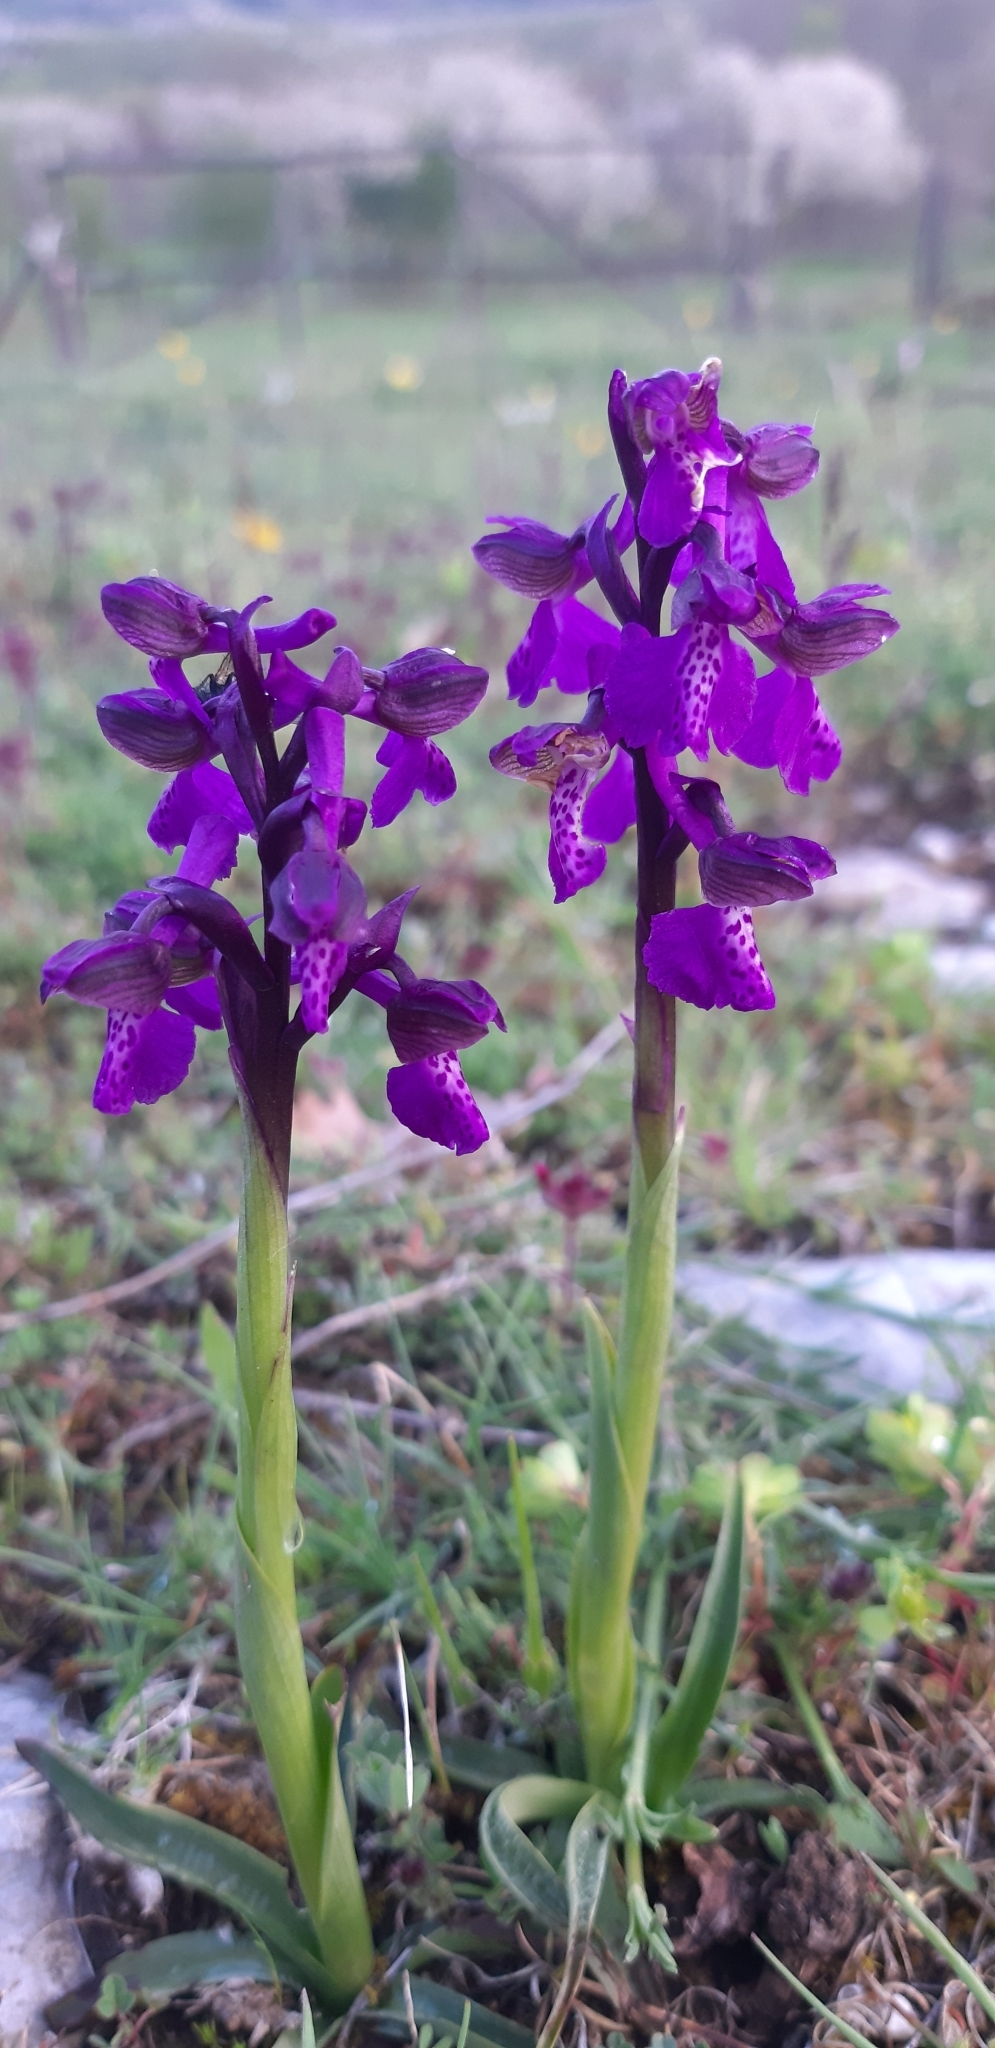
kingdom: Plantae
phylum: Tracheophyta
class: Liliopsida
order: Asparagales
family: Orchidaceae
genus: Anacamptis
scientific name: Anacamptis morio
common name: Green-winged orchid
